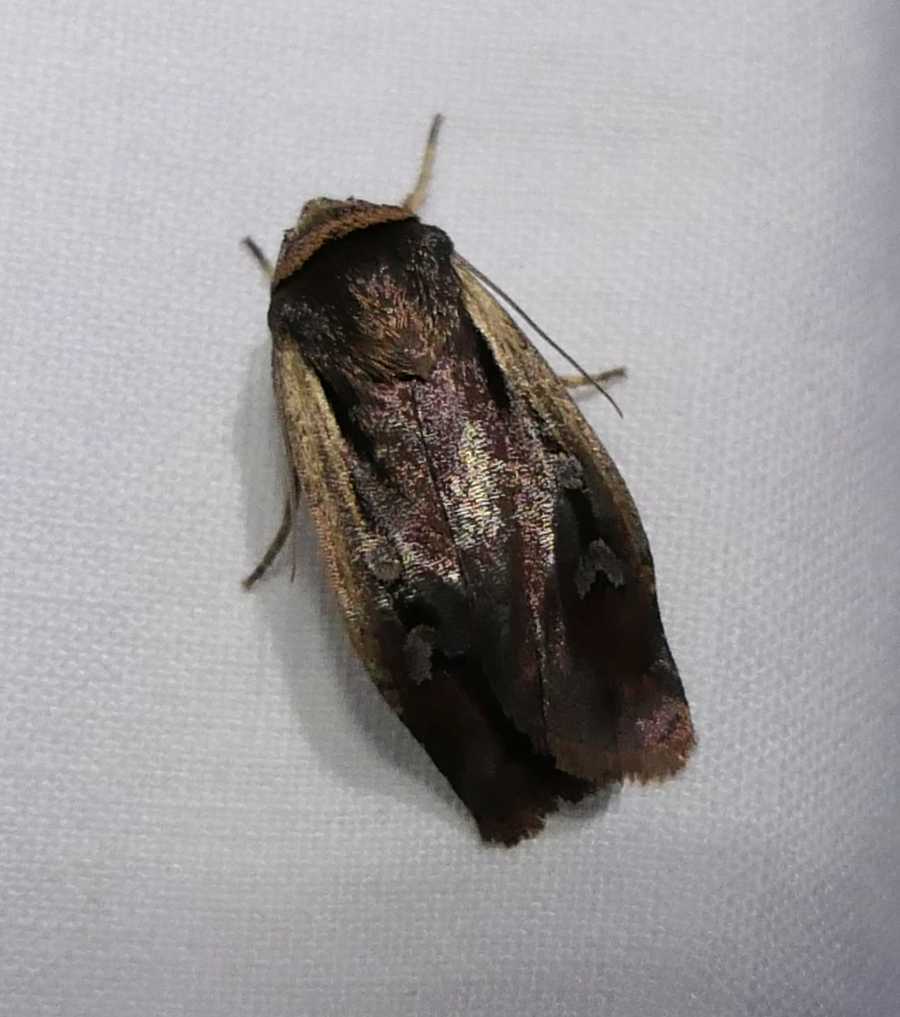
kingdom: Animalia
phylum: Arthropoda
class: Insecta
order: Lepidoptera
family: Noctuidae
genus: Ochropleura
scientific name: Ochropleura implecta
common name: Flame-shouldered dart
